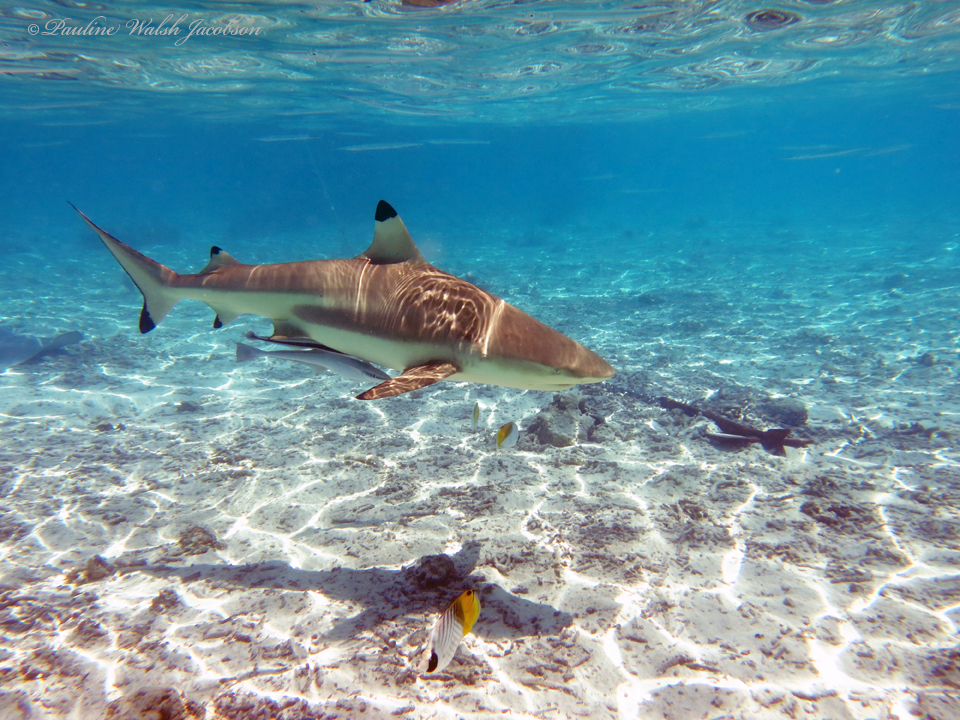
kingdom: Animalia
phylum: Chordata
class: Elasmobranchii
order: Carcharhiniformes
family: Carcharhinidae
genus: Carcharhinus
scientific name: Carcharhinus melanopterus
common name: Blacktip reef shark
